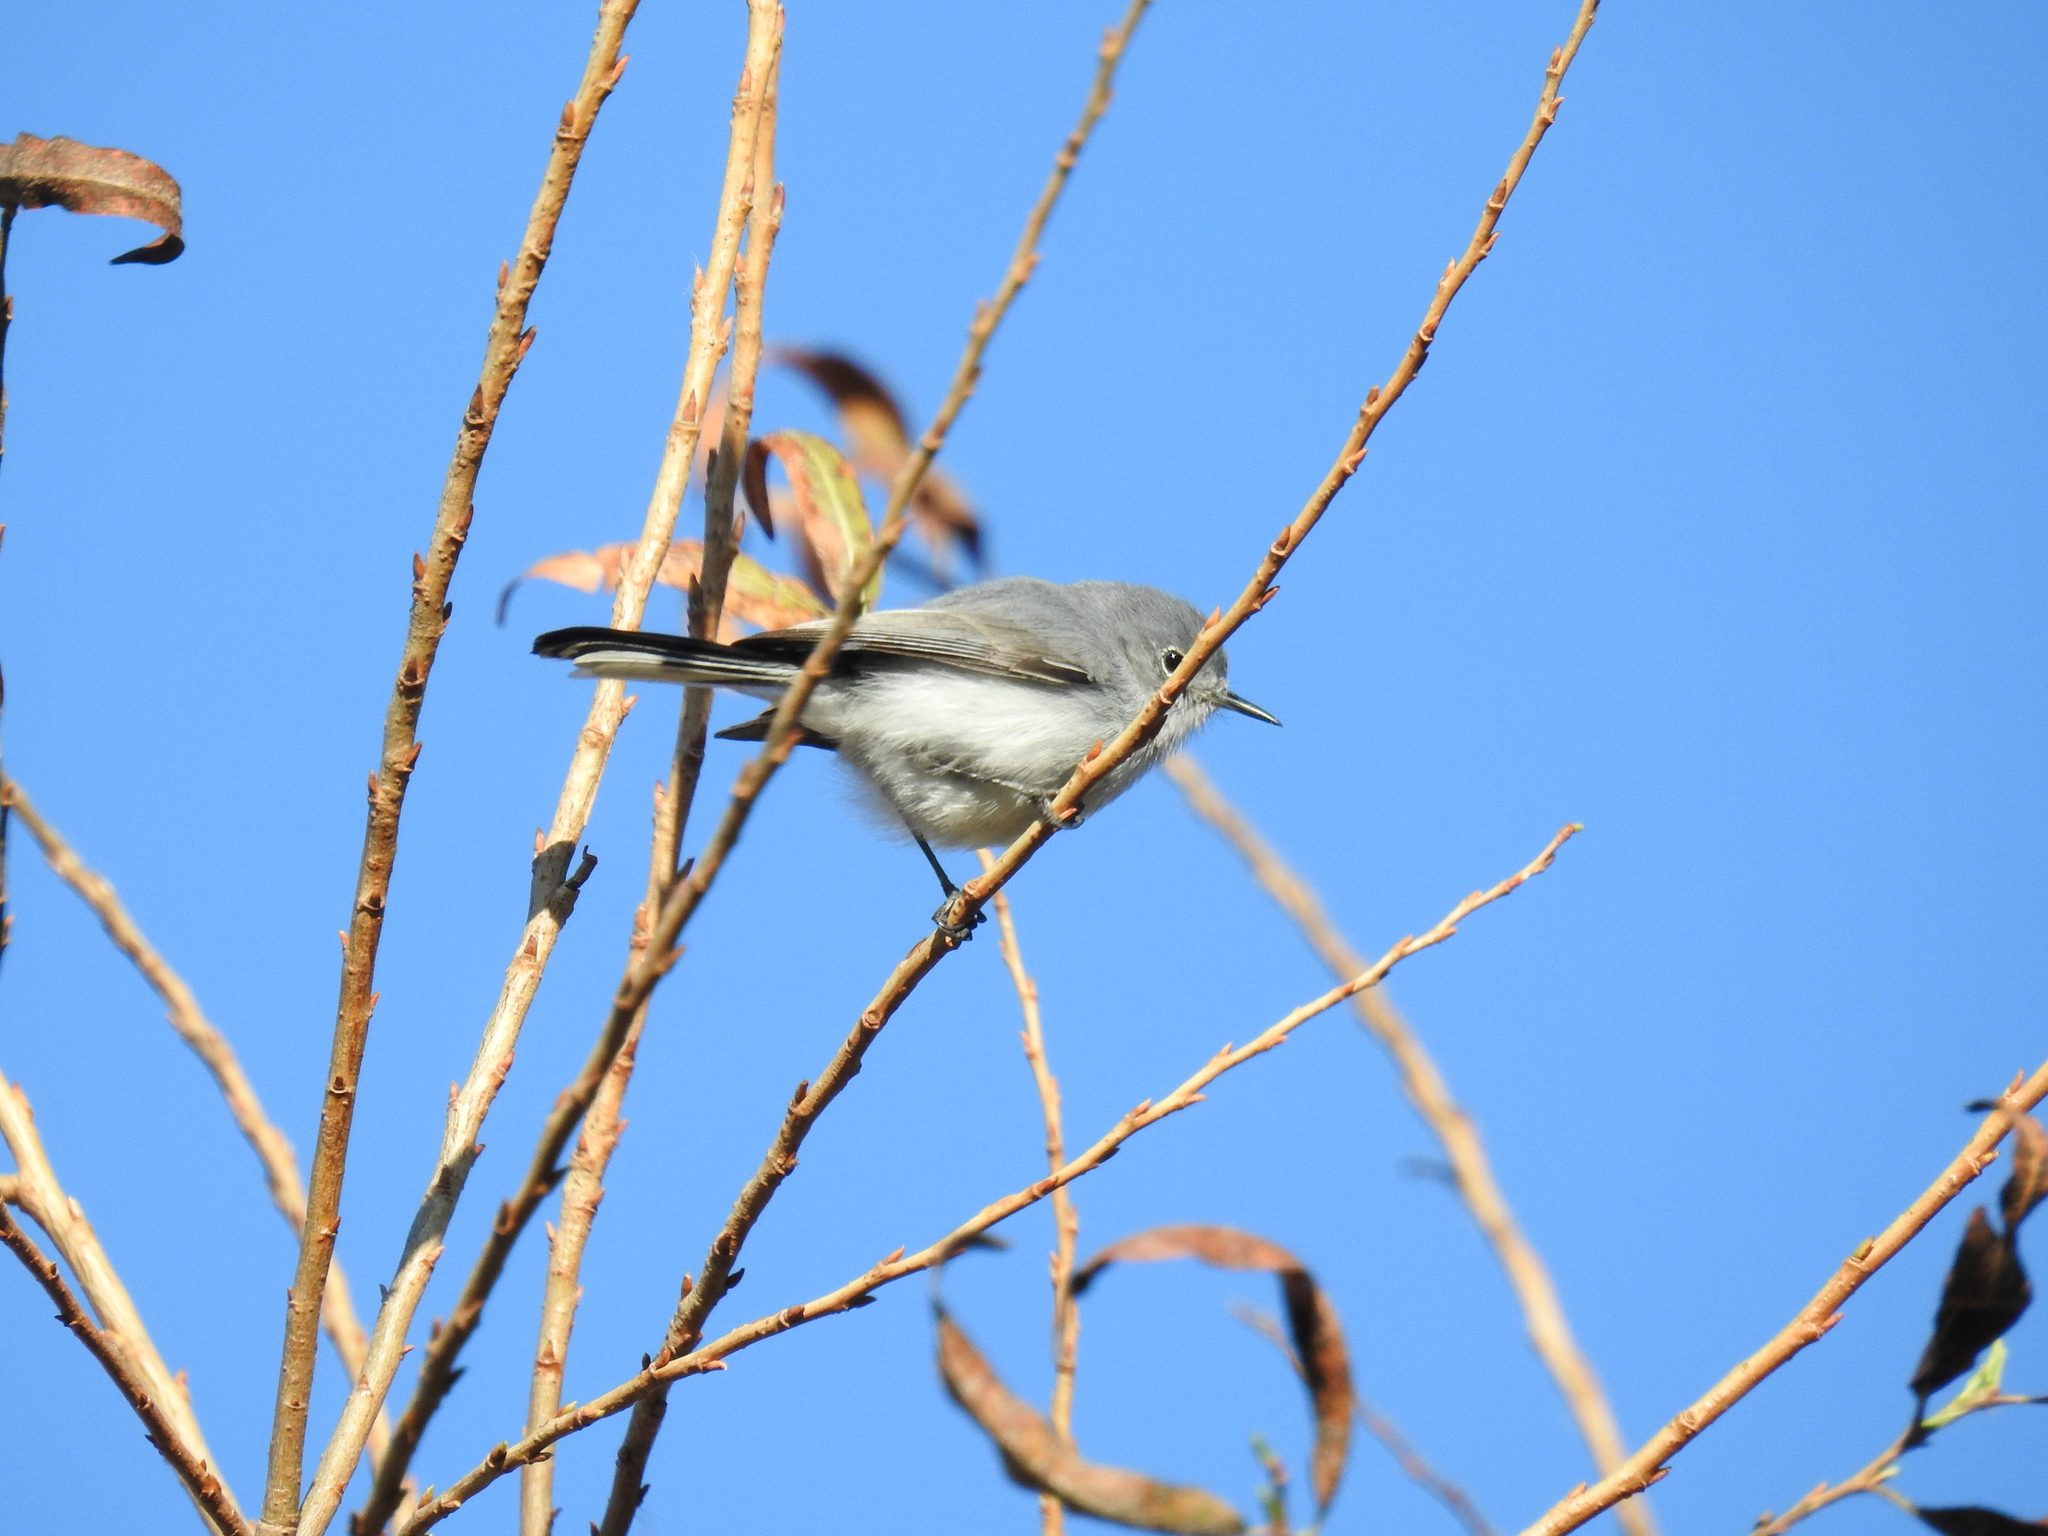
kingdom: Animalia
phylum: Chordata
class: Aves
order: Passeriformes
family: Polioptilidae
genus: Polioptila
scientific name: Polioptila caerulea
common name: Blue-gray gnatcatcher
